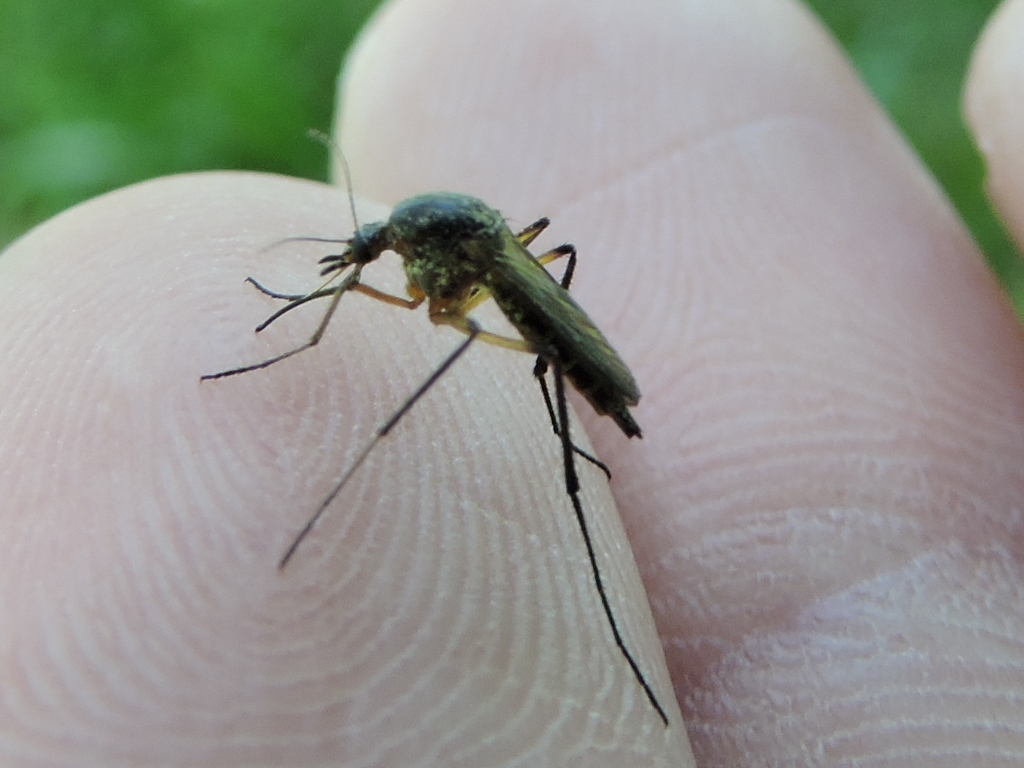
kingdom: Animalia
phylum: Arthropoda
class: Insecta
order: Diptera
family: Culicidae
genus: Psorophora
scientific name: Psorophora cyanescens
